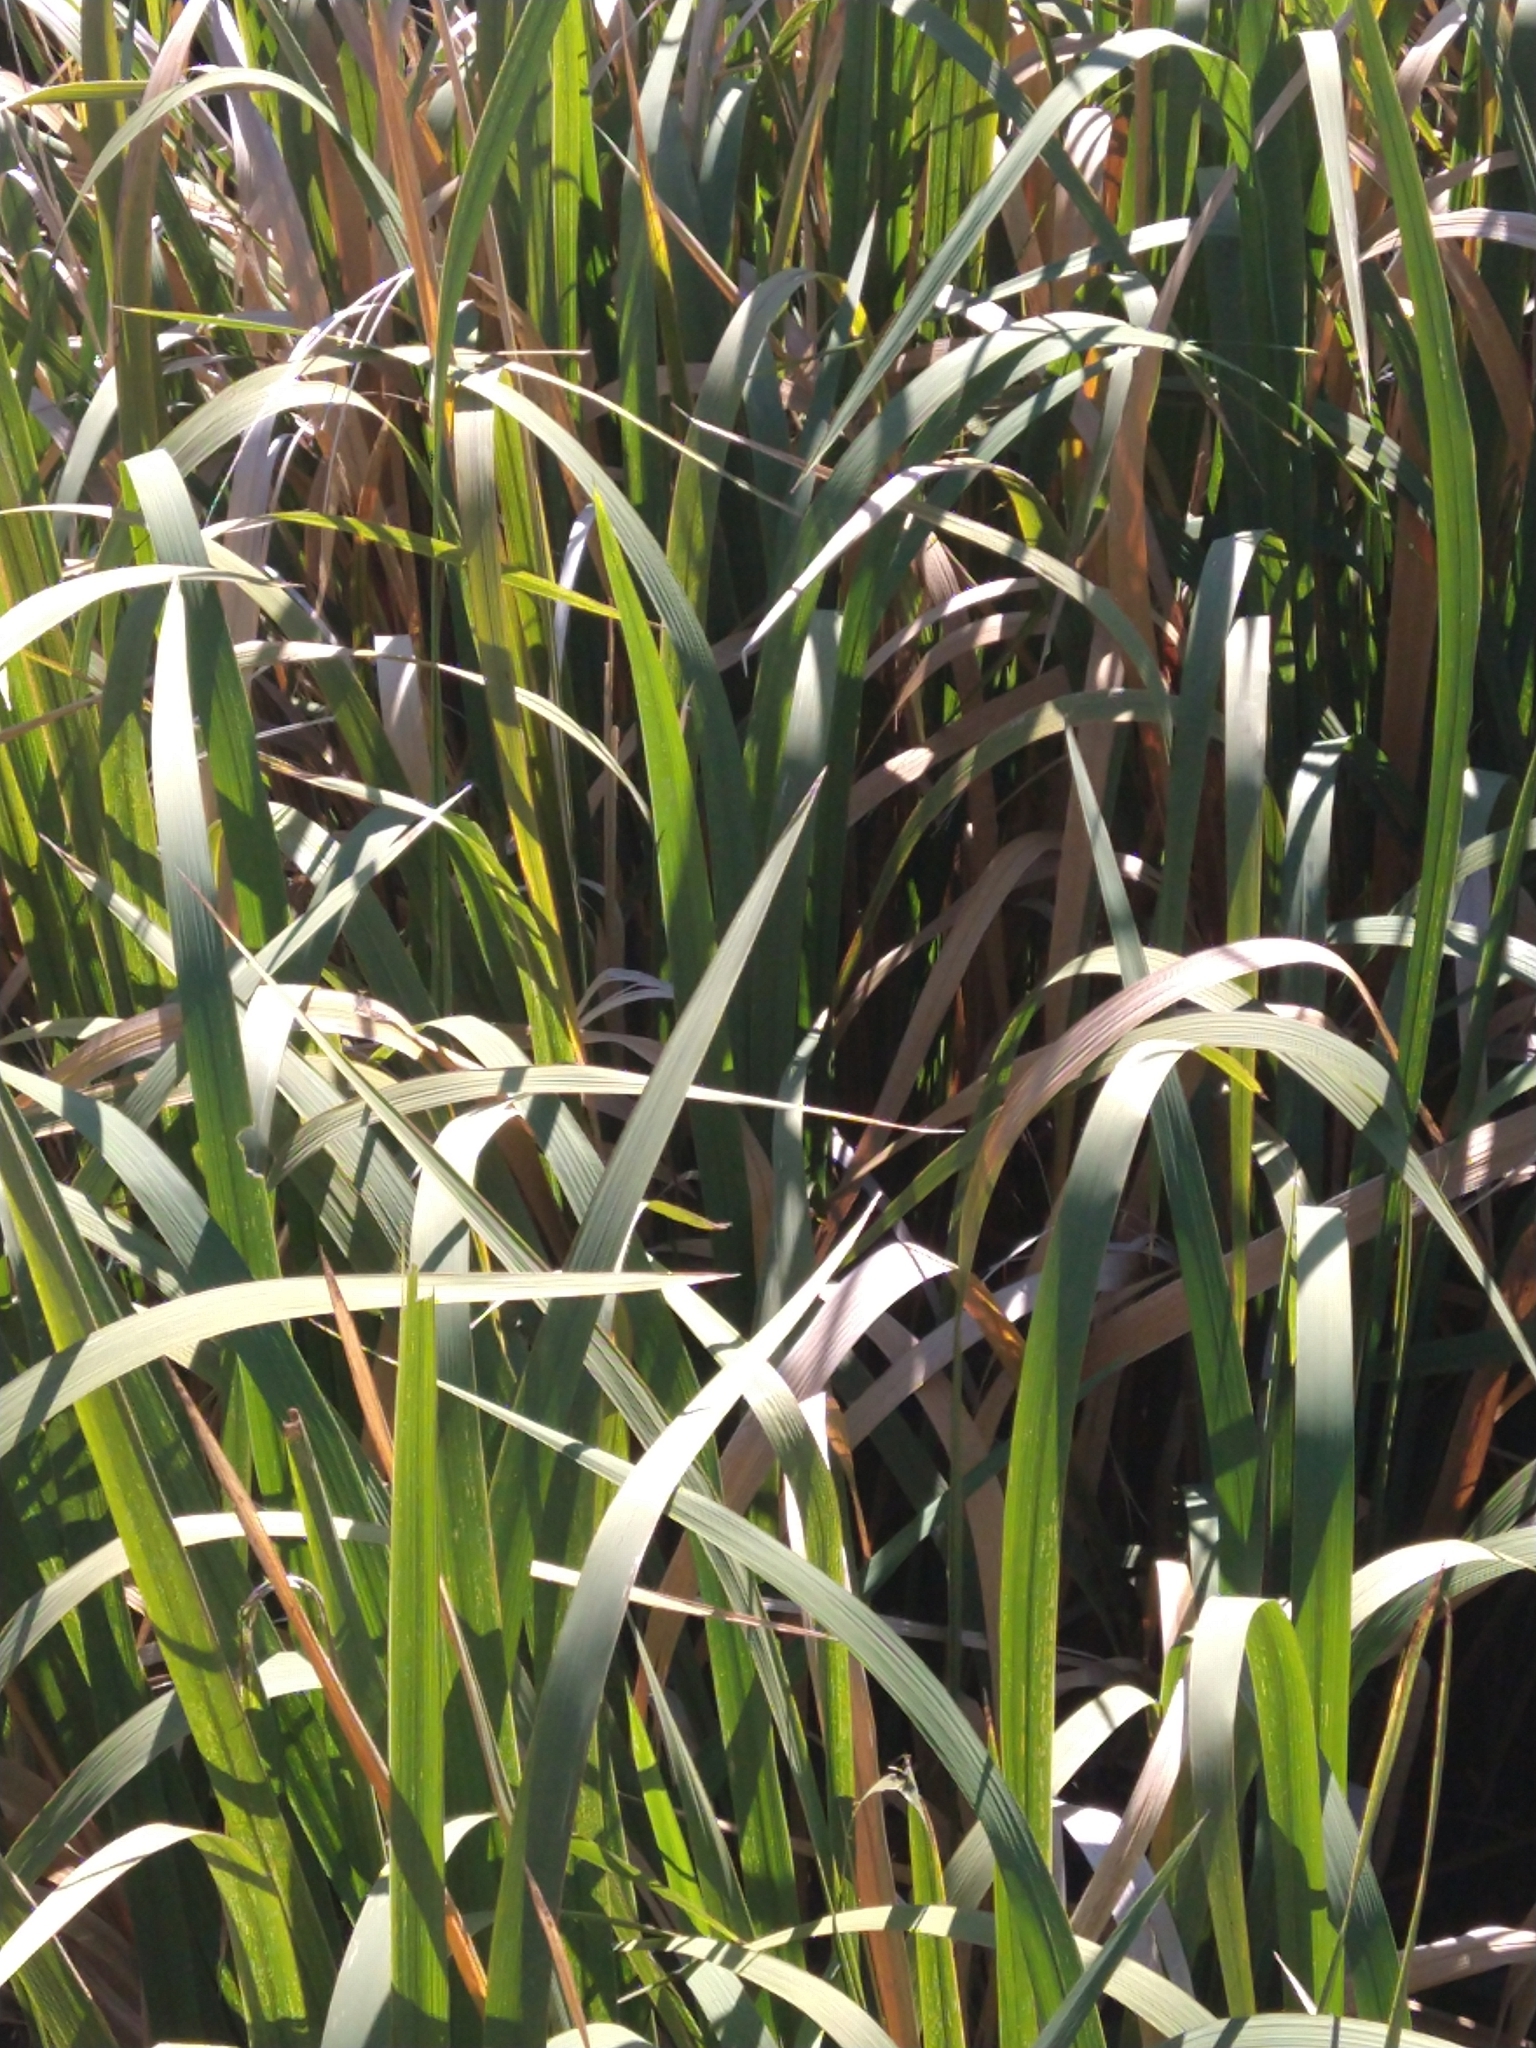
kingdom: Plantae
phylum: Tracheophyta
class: Liliopsida
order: Poales
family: Poaceae
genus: Zizaniopsis
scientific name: Zizaniopsis bonariensis
